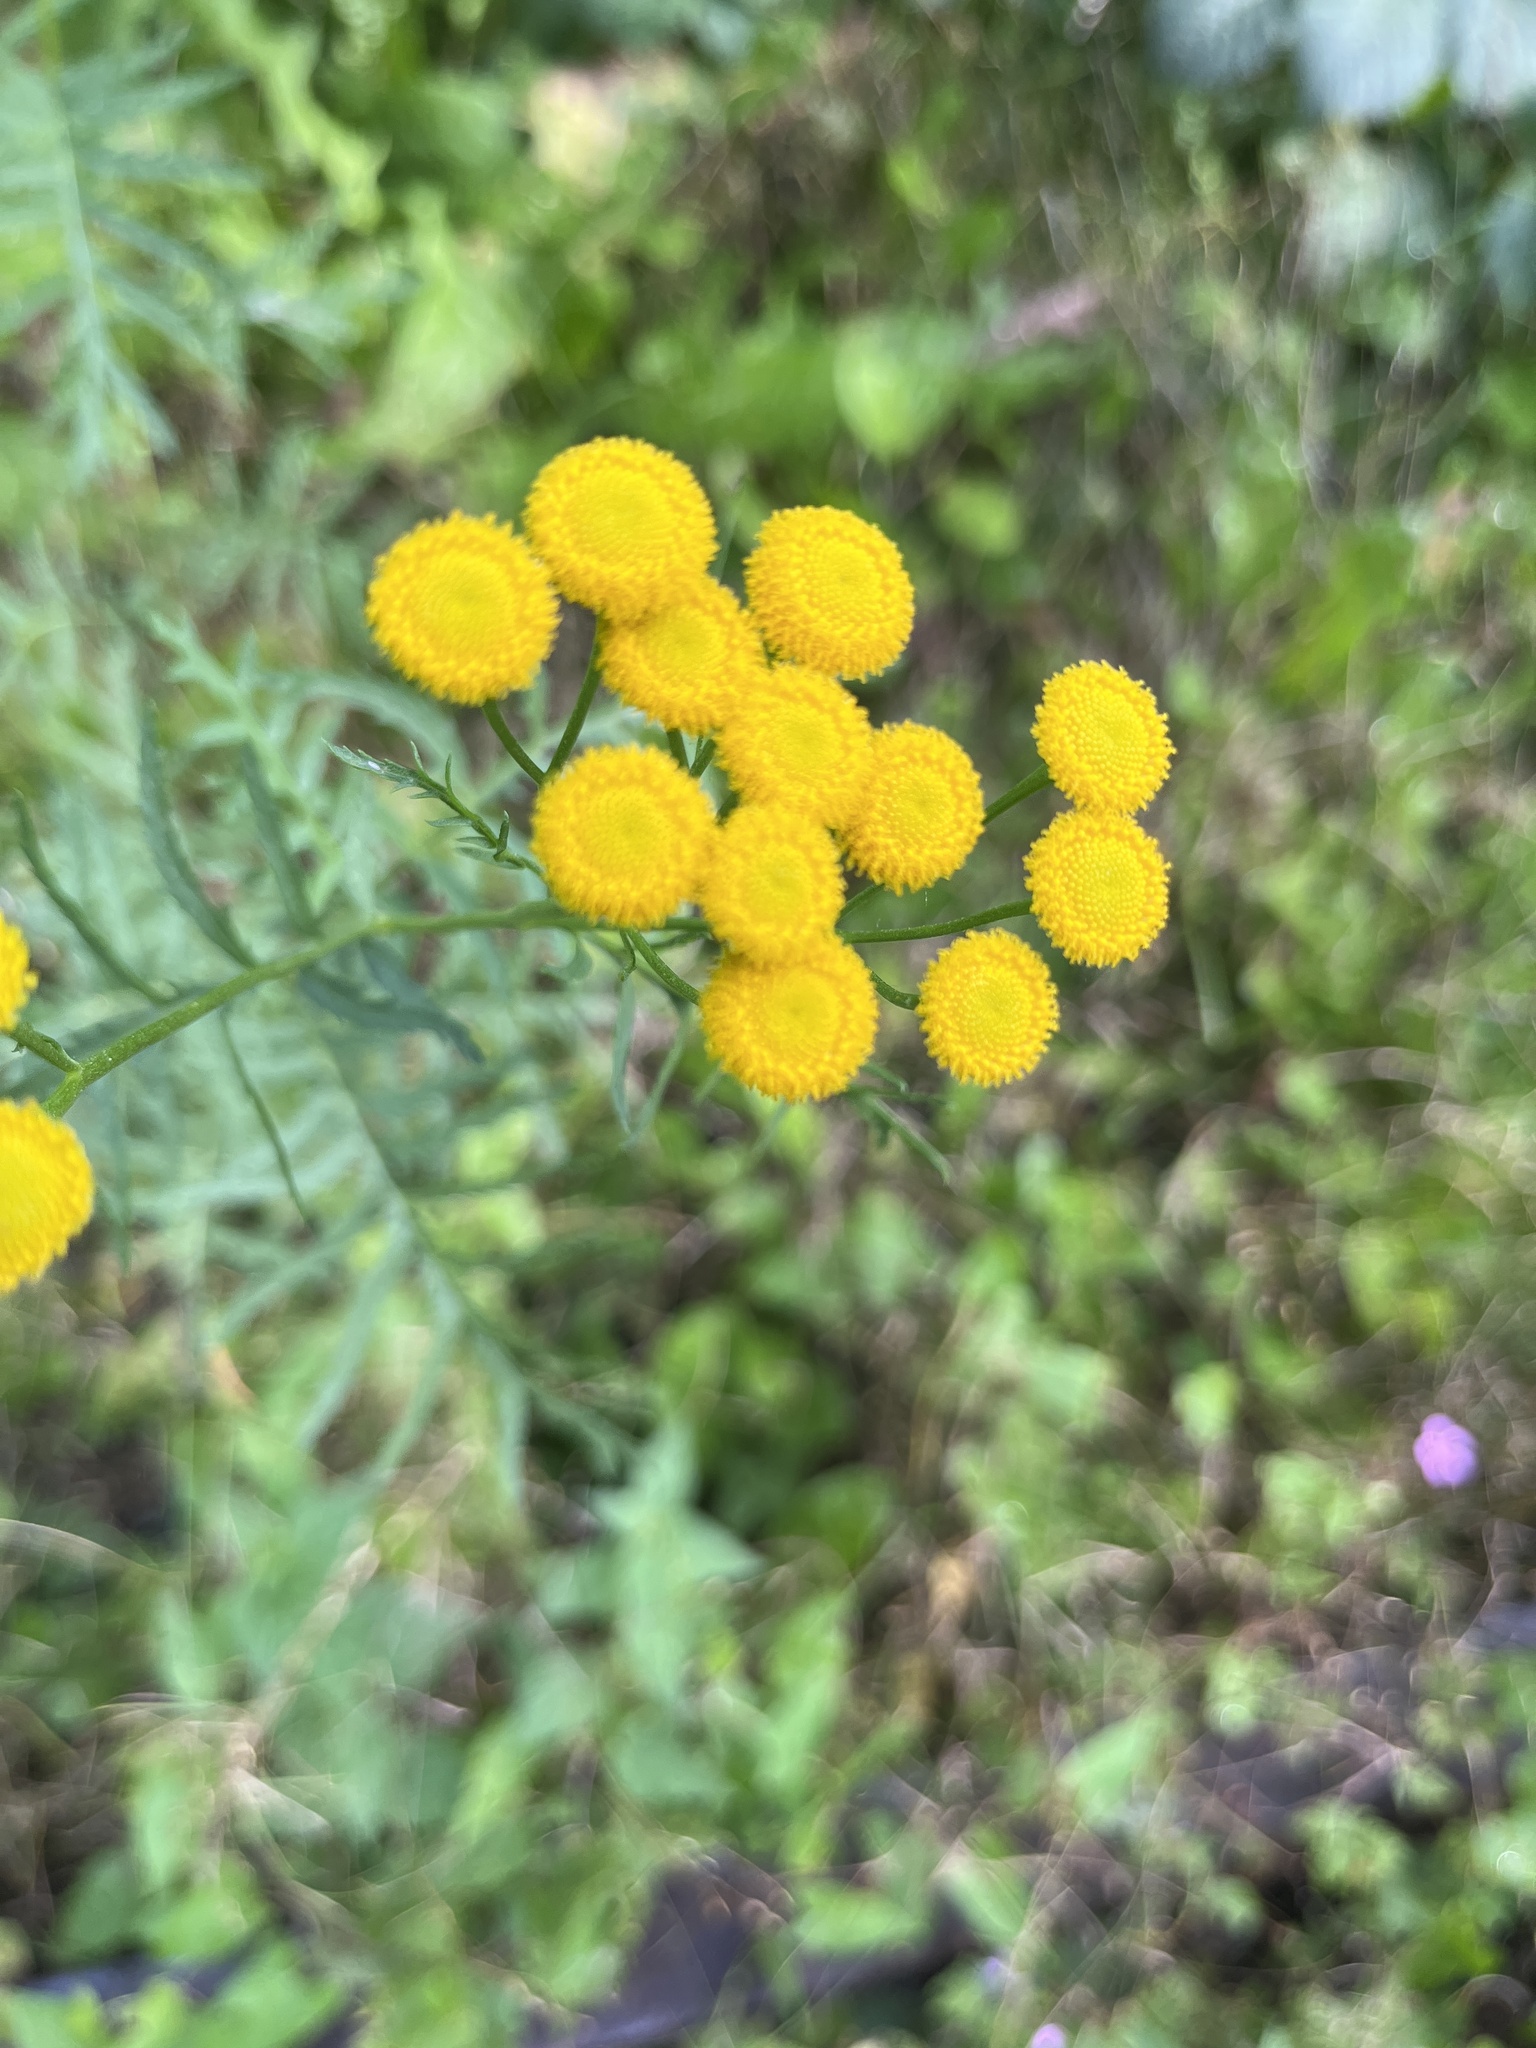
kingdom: Plantae
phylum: Tracheophyta
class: Magnoliopsida
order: Asterales
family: Asteraceae
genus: Tanacetum
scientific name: Tanacetum vulgare
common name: Common tansy
